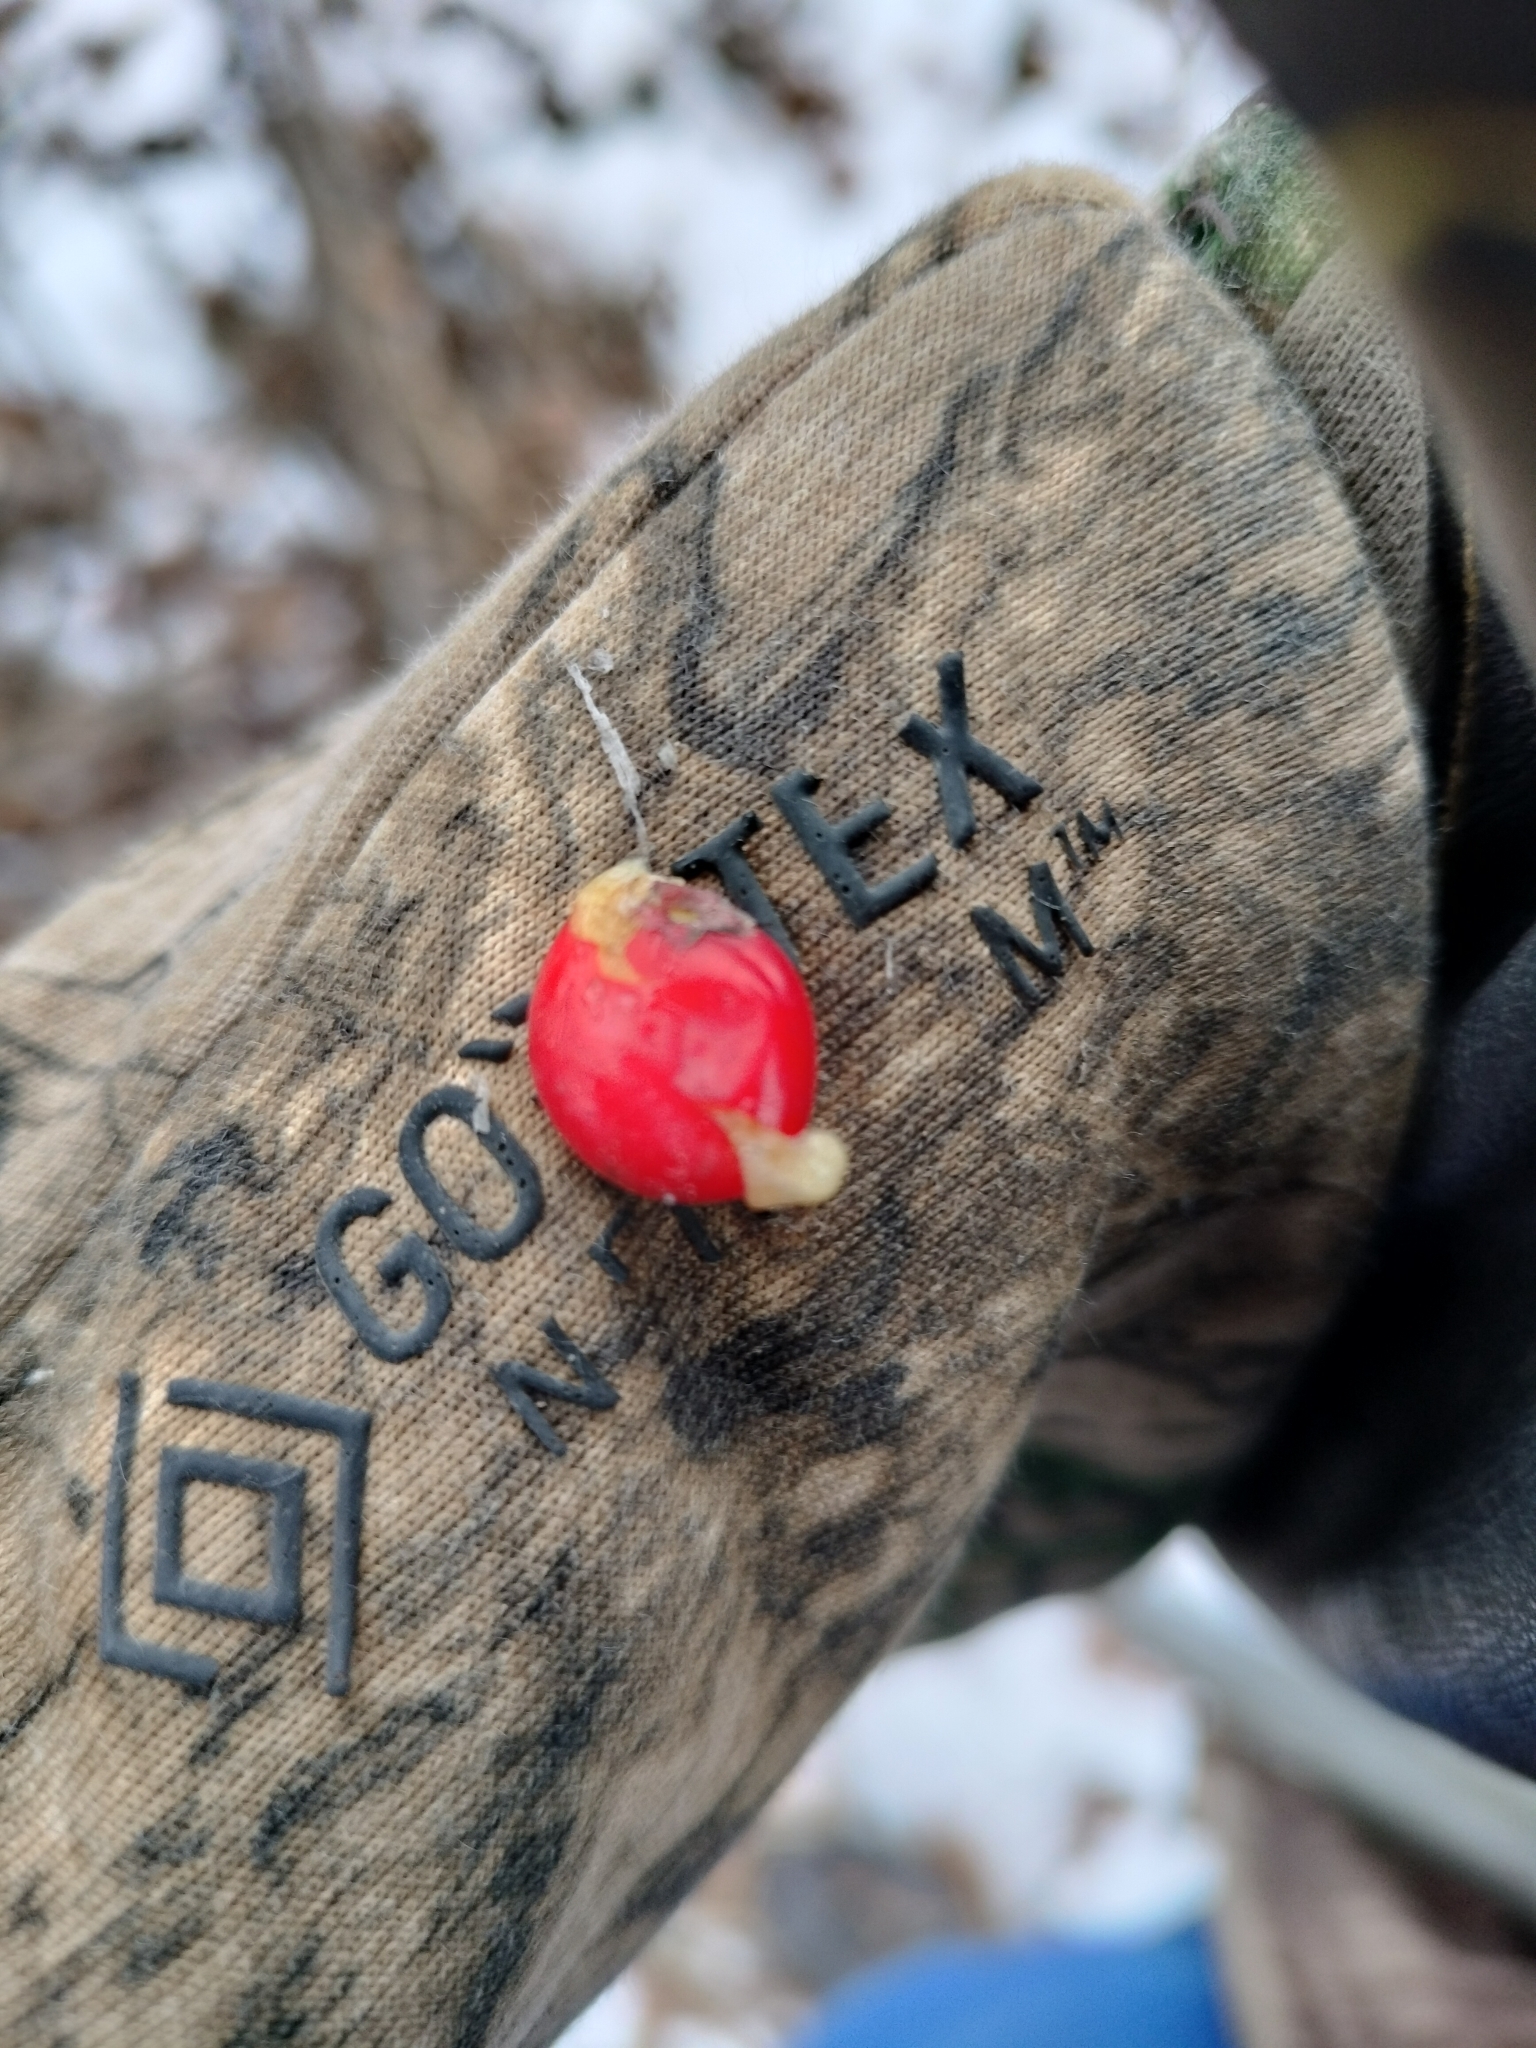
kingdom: Plantae
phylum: Tracheophyta
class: Magnoliopsida
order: Aquifoliales
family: Aquifoliaceae
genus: Ilex
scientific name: Ilex verticillata
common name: Virginia winterberry
